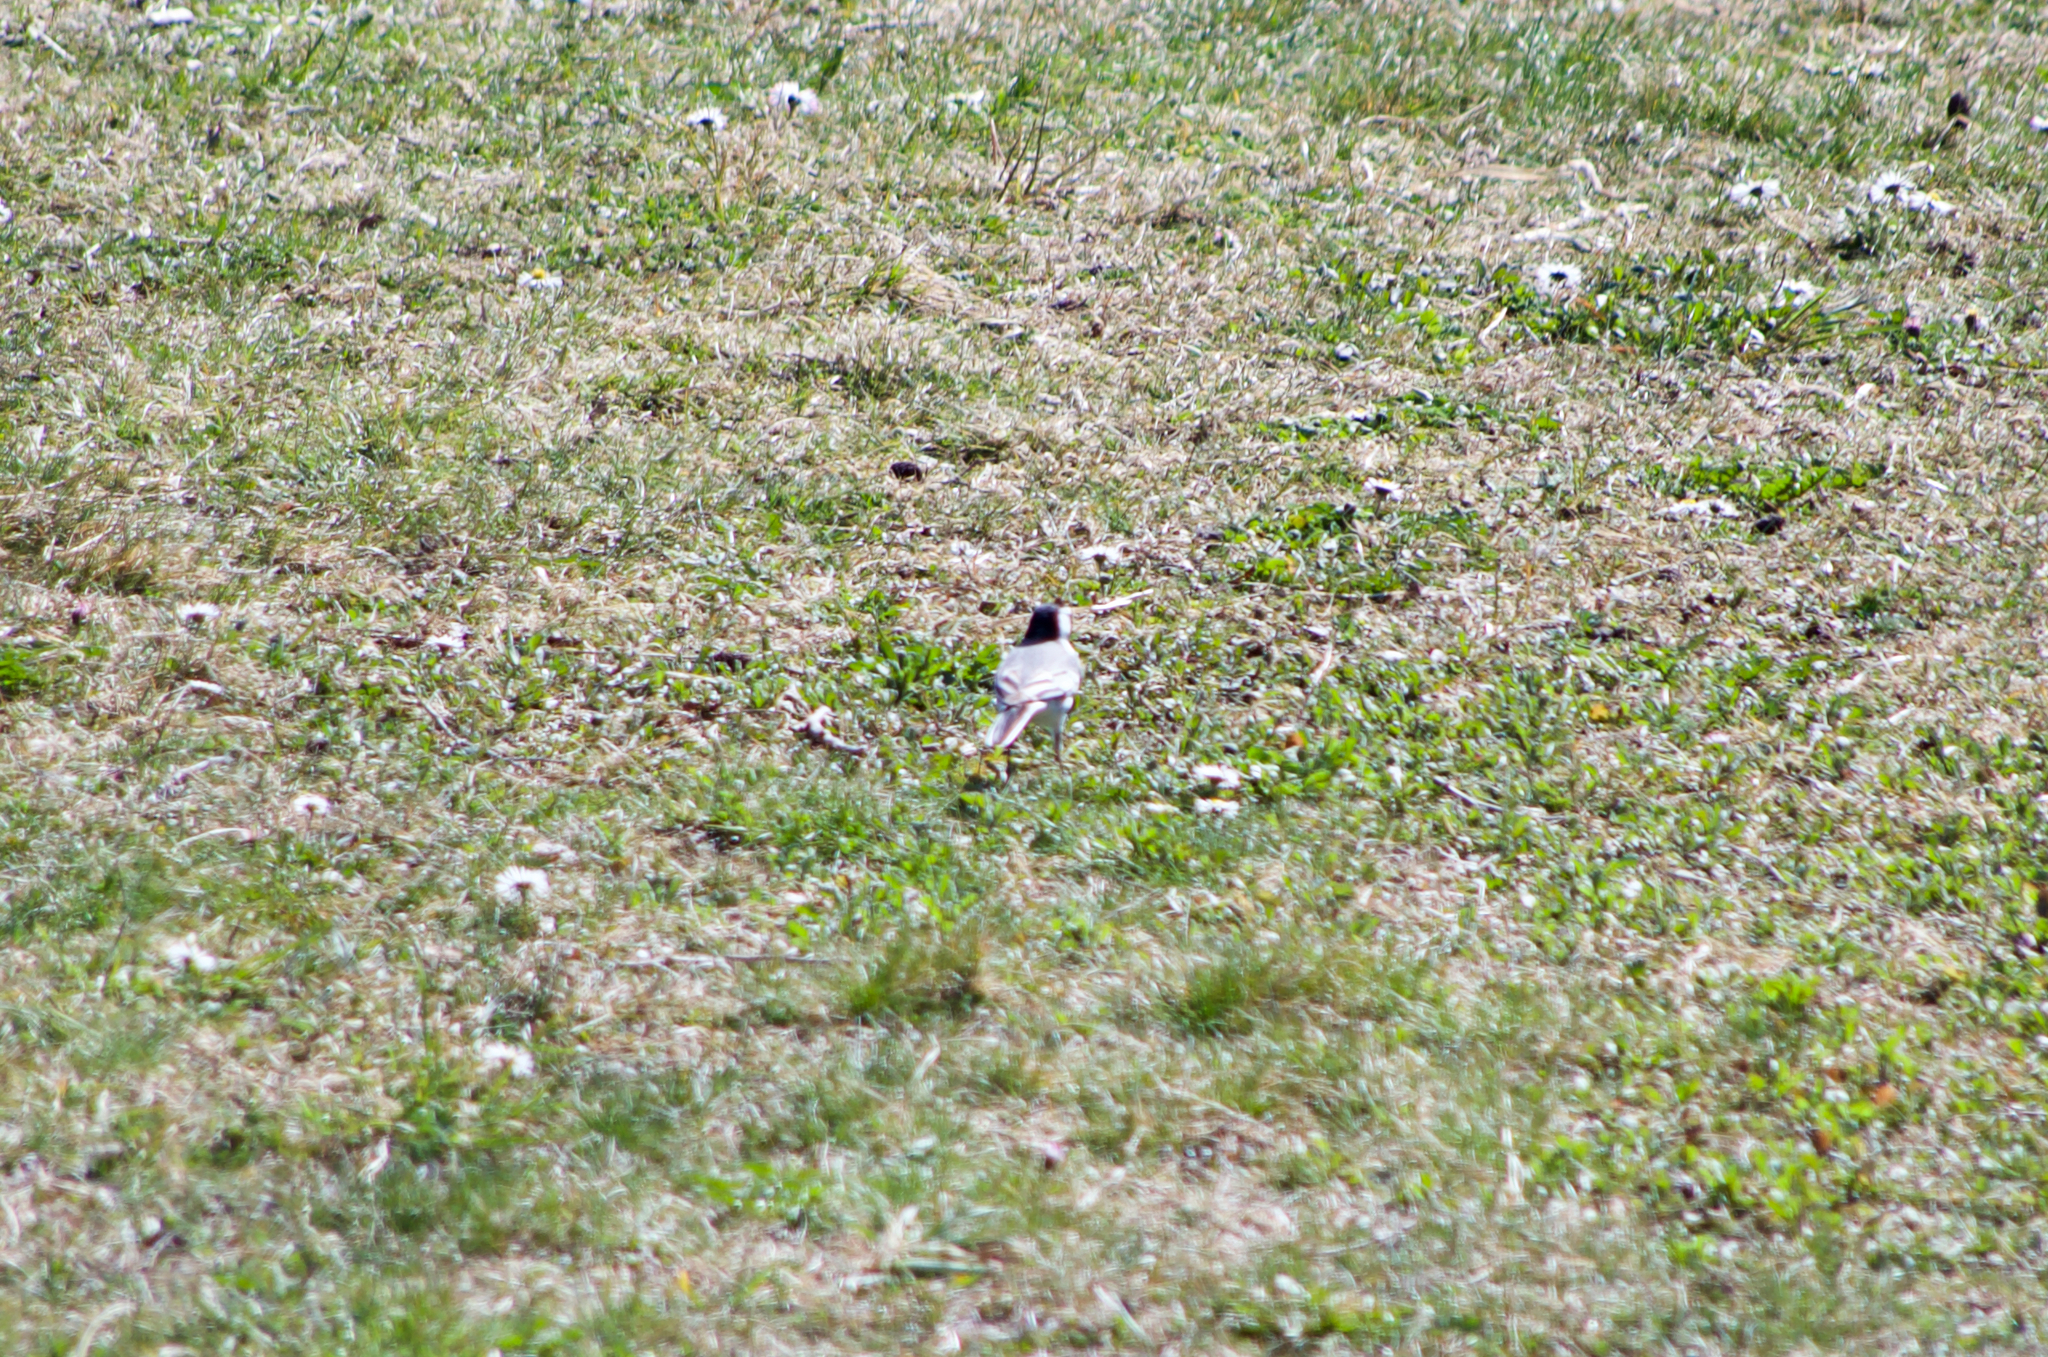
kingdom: Animalia
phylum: Chordata
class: Aves
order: Passeriformes
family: Motacillidae
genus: Motacilla
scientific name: Motacilla alba
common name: White wagtail
